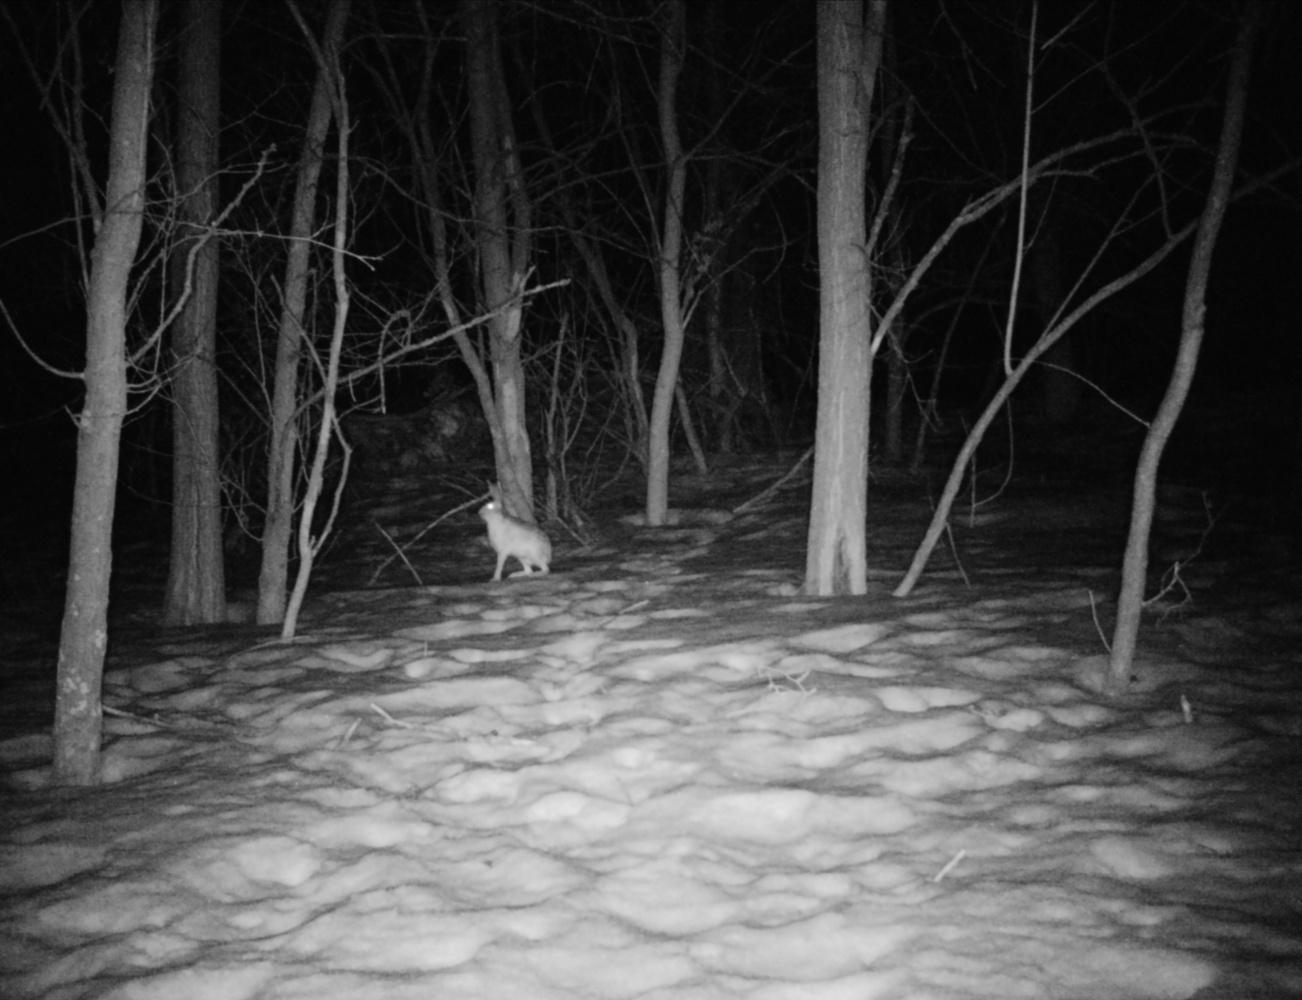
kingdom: Animalia
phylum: Chordata
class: Mammalia
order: Lagomorpha
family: Leporidae
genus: Lepus
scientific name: Lepus europaeus
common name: European hare
